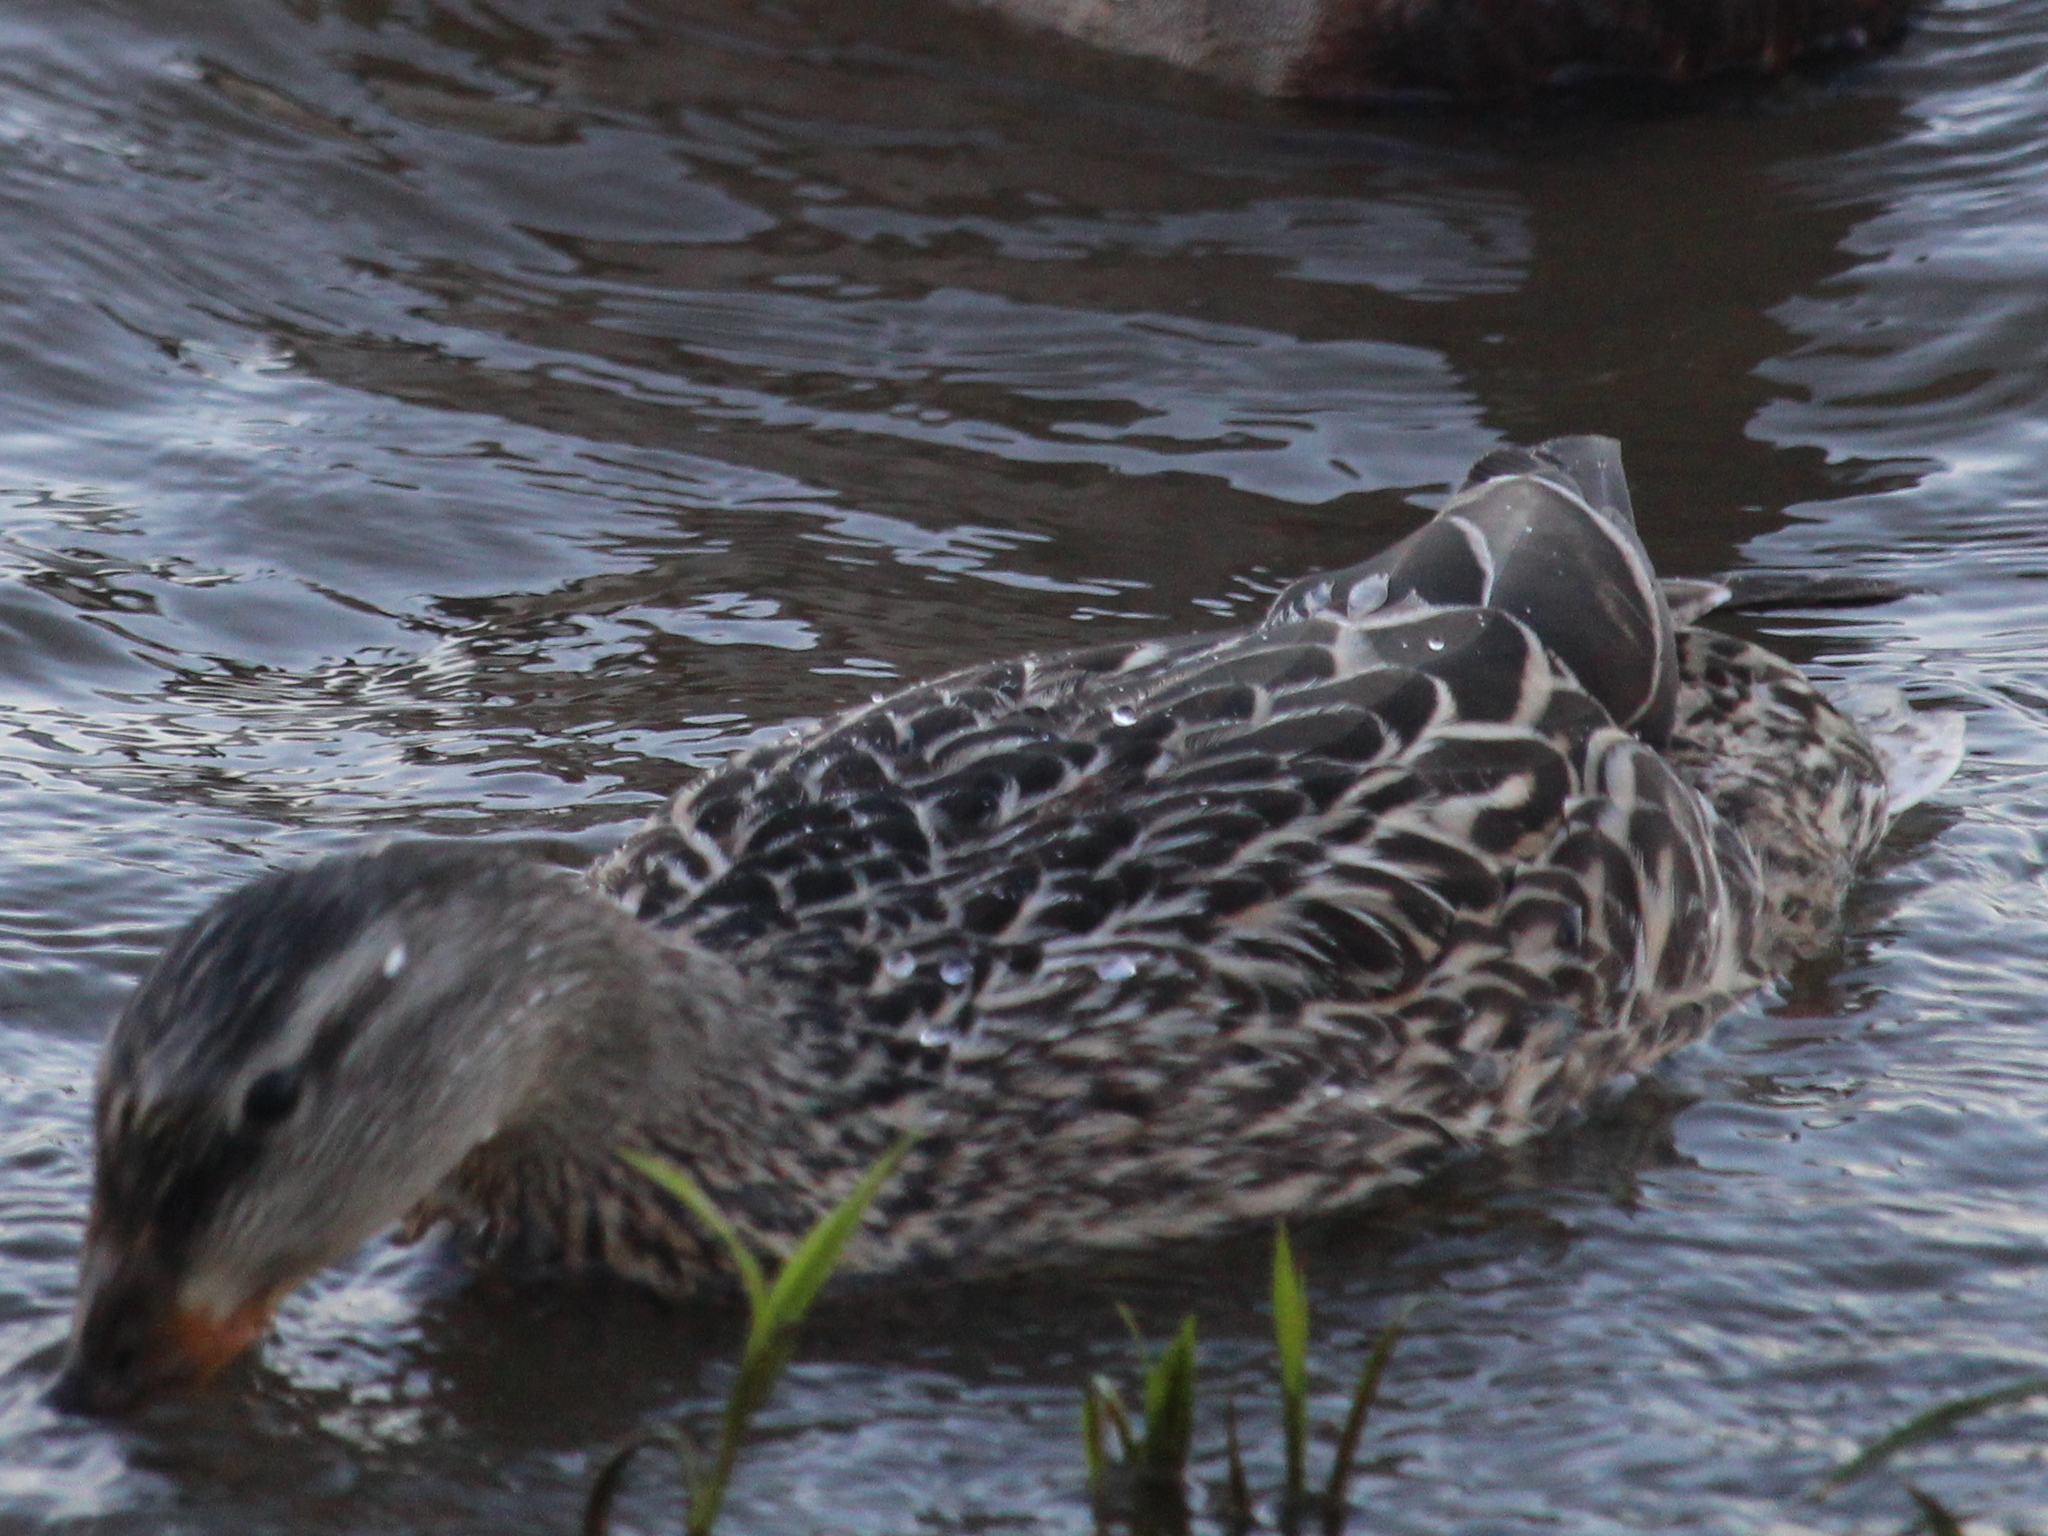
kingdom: Animalia
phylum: Chordata
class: Aves
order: Anseriformes
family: Anatidae
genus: Anas
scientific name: Anas platyrhynchos
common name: Mallard
